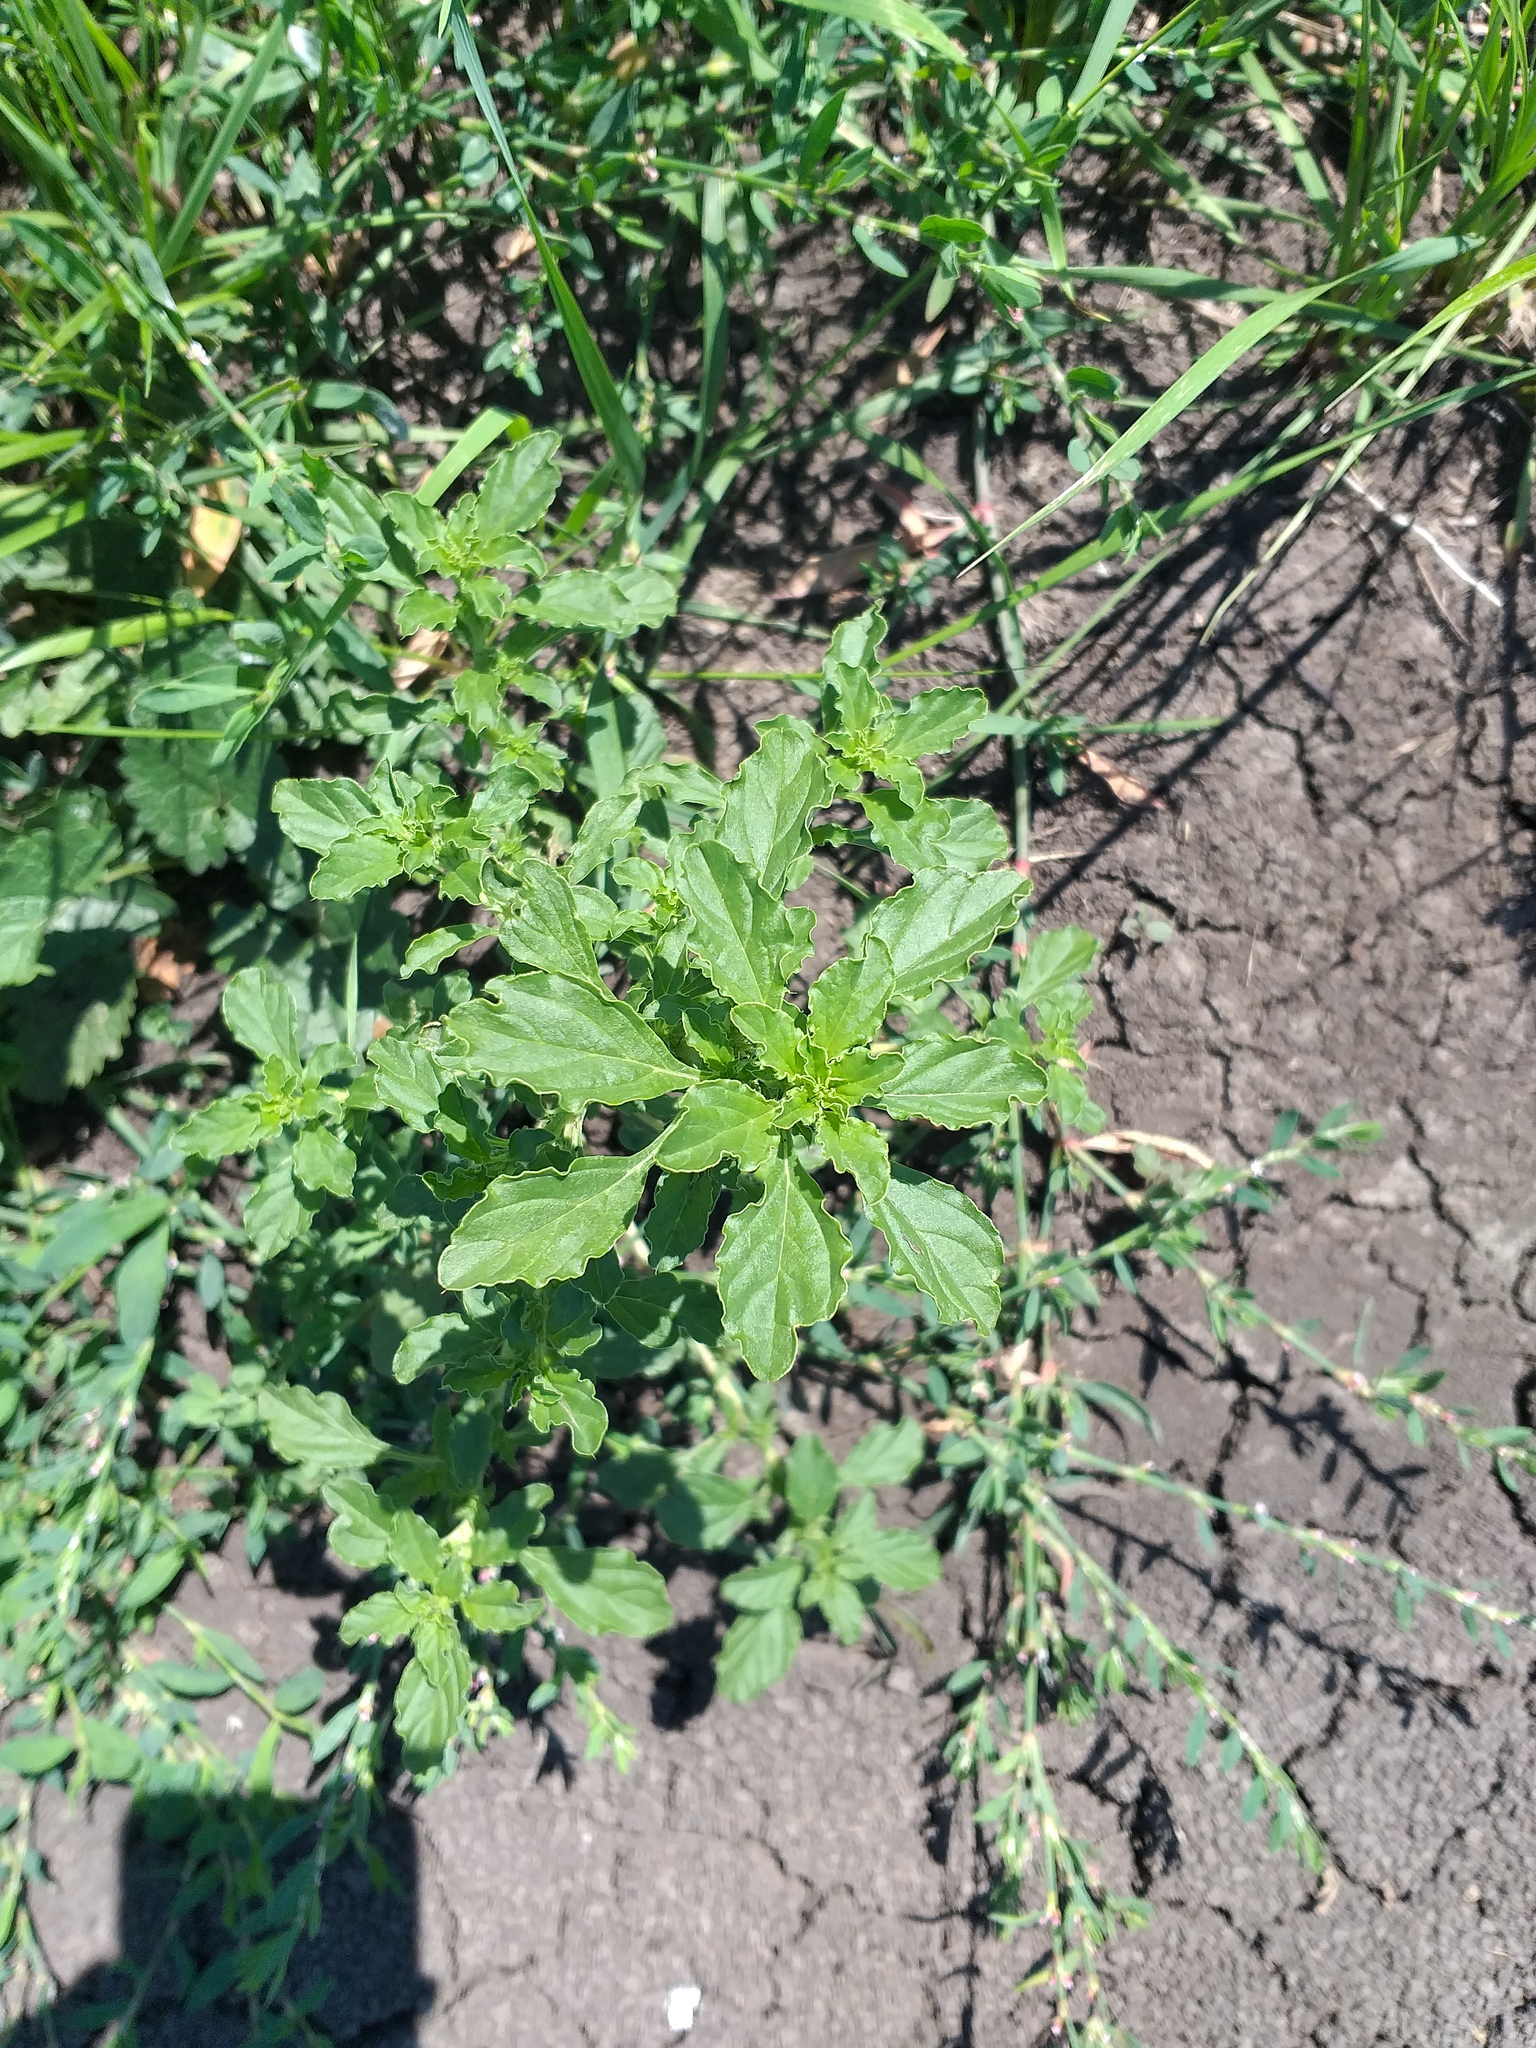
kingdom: Plantae
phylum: Tracheophyta
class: Magnoliopsida
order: Caryophyllales
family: Amaranthaceae
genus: Amaranthus
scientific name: Amaranthus albus
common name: White pigweed
